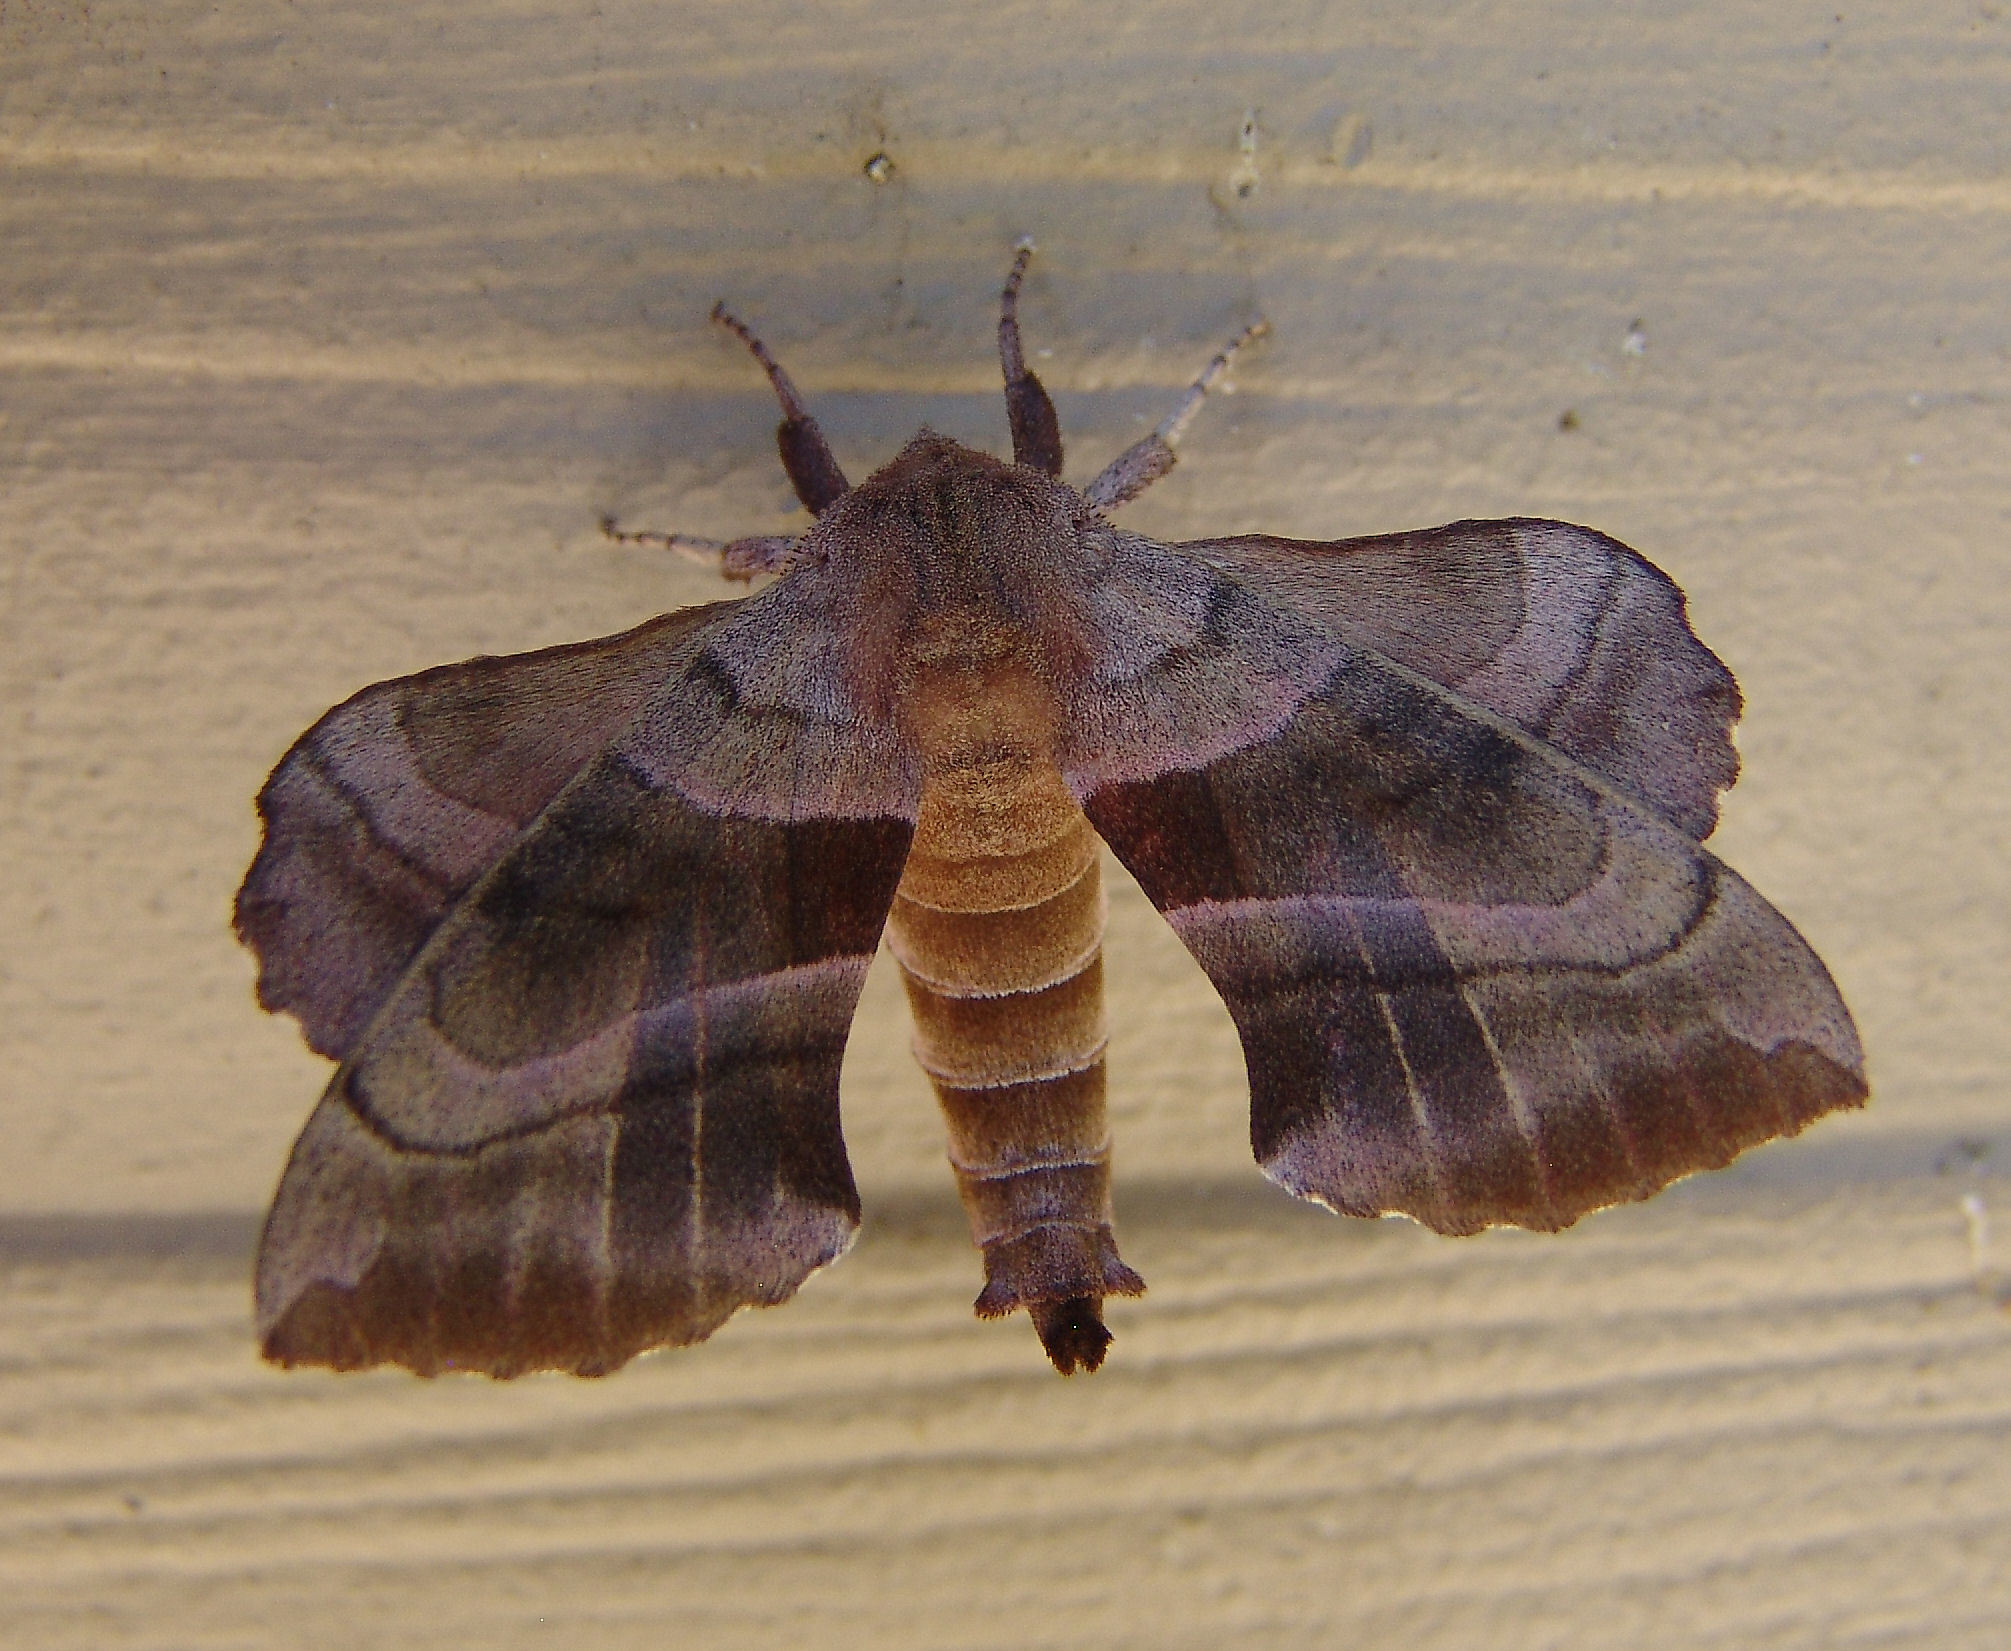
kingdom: Animalia
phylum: Arthropoda
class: Insecta
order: Lepidoptera
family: Sphingidae
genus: Amorpha
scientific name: Amorpha juglandis
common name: Walnut sphinx
